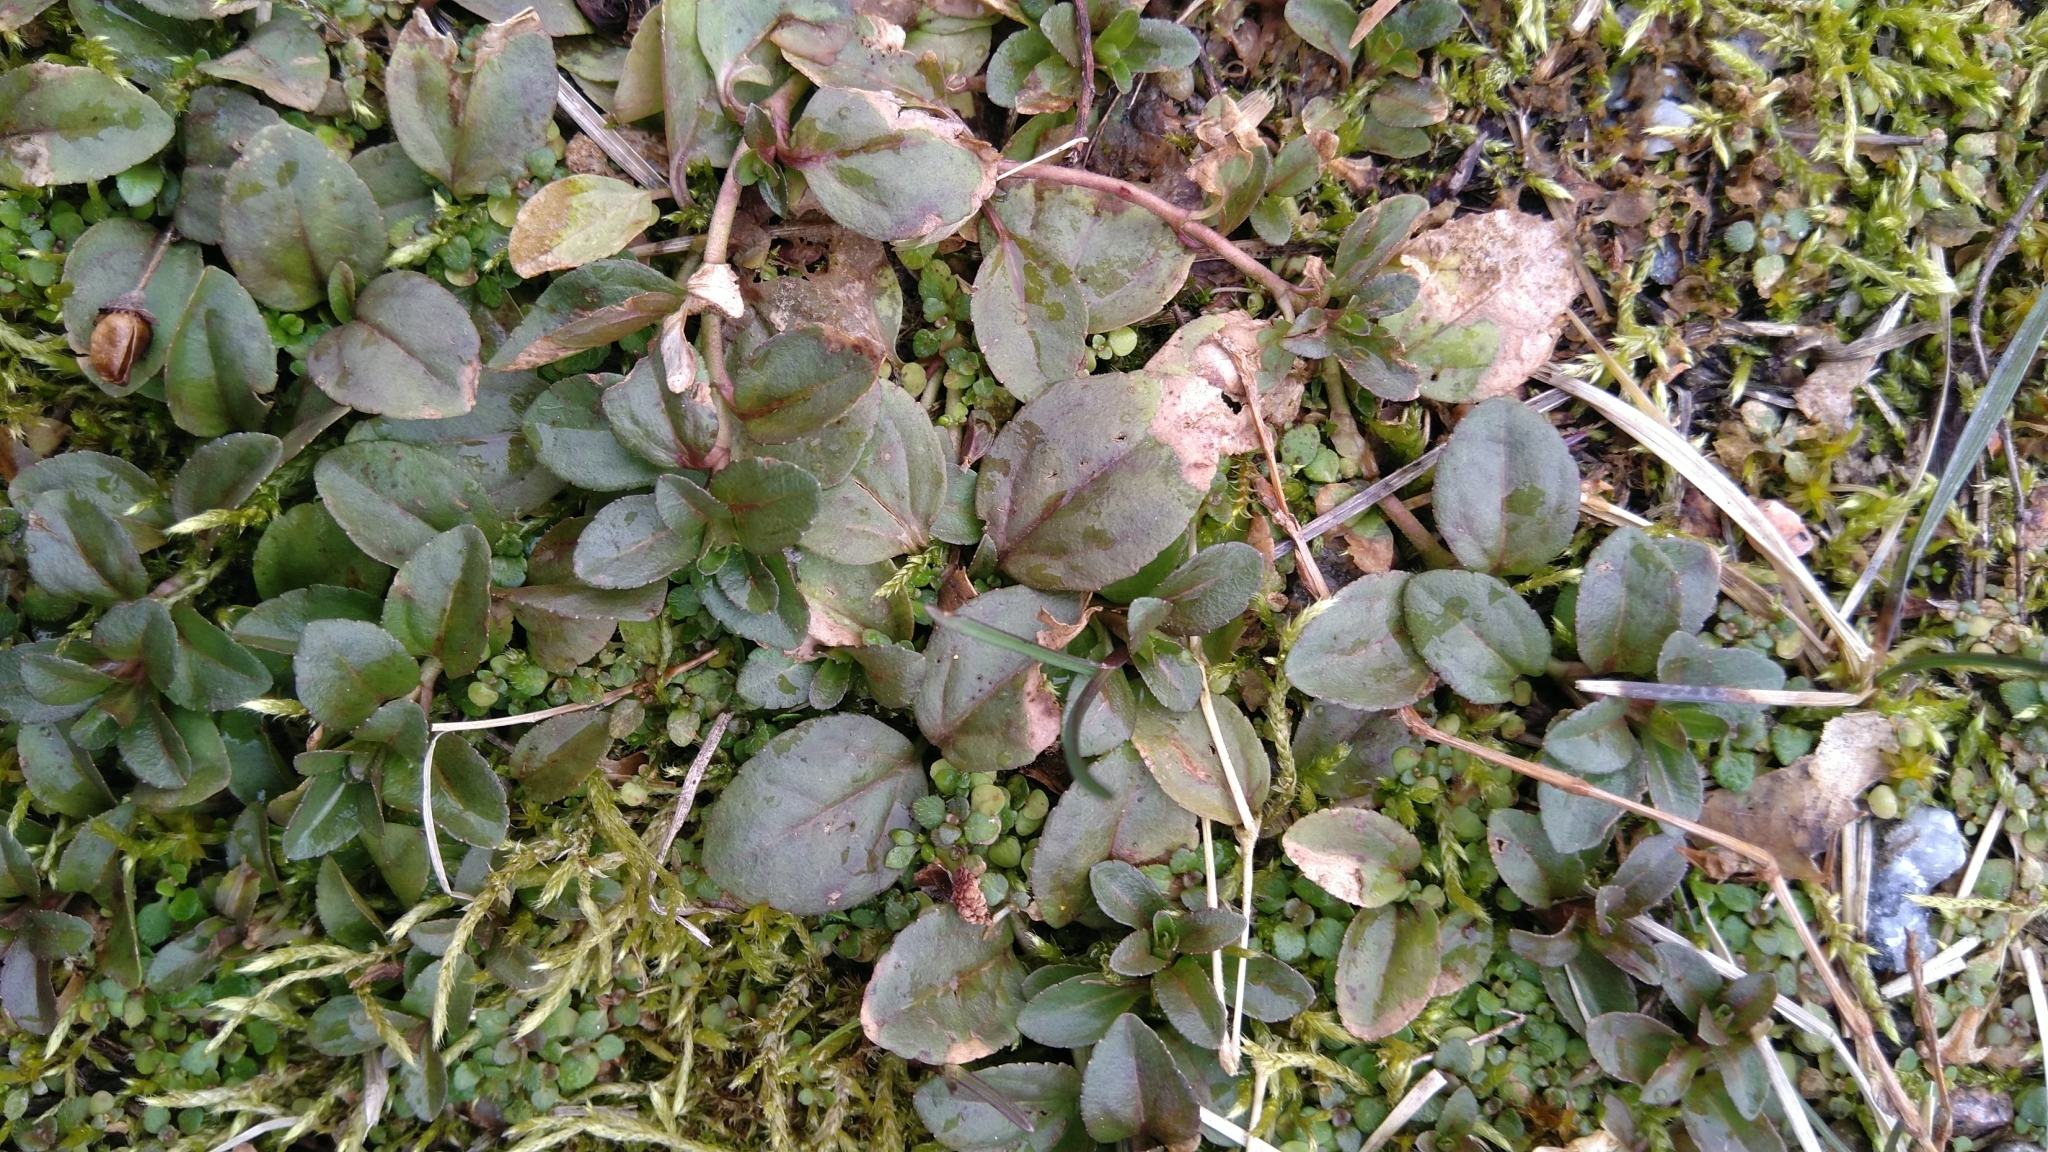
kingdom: Plantae
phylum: Tracheophyta
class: Magnoliopsida
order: Lamiales
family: Plantaginaceae
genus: Veronica
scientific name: Veronica serpyllifolia
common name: Thyme-leaved speedwell
